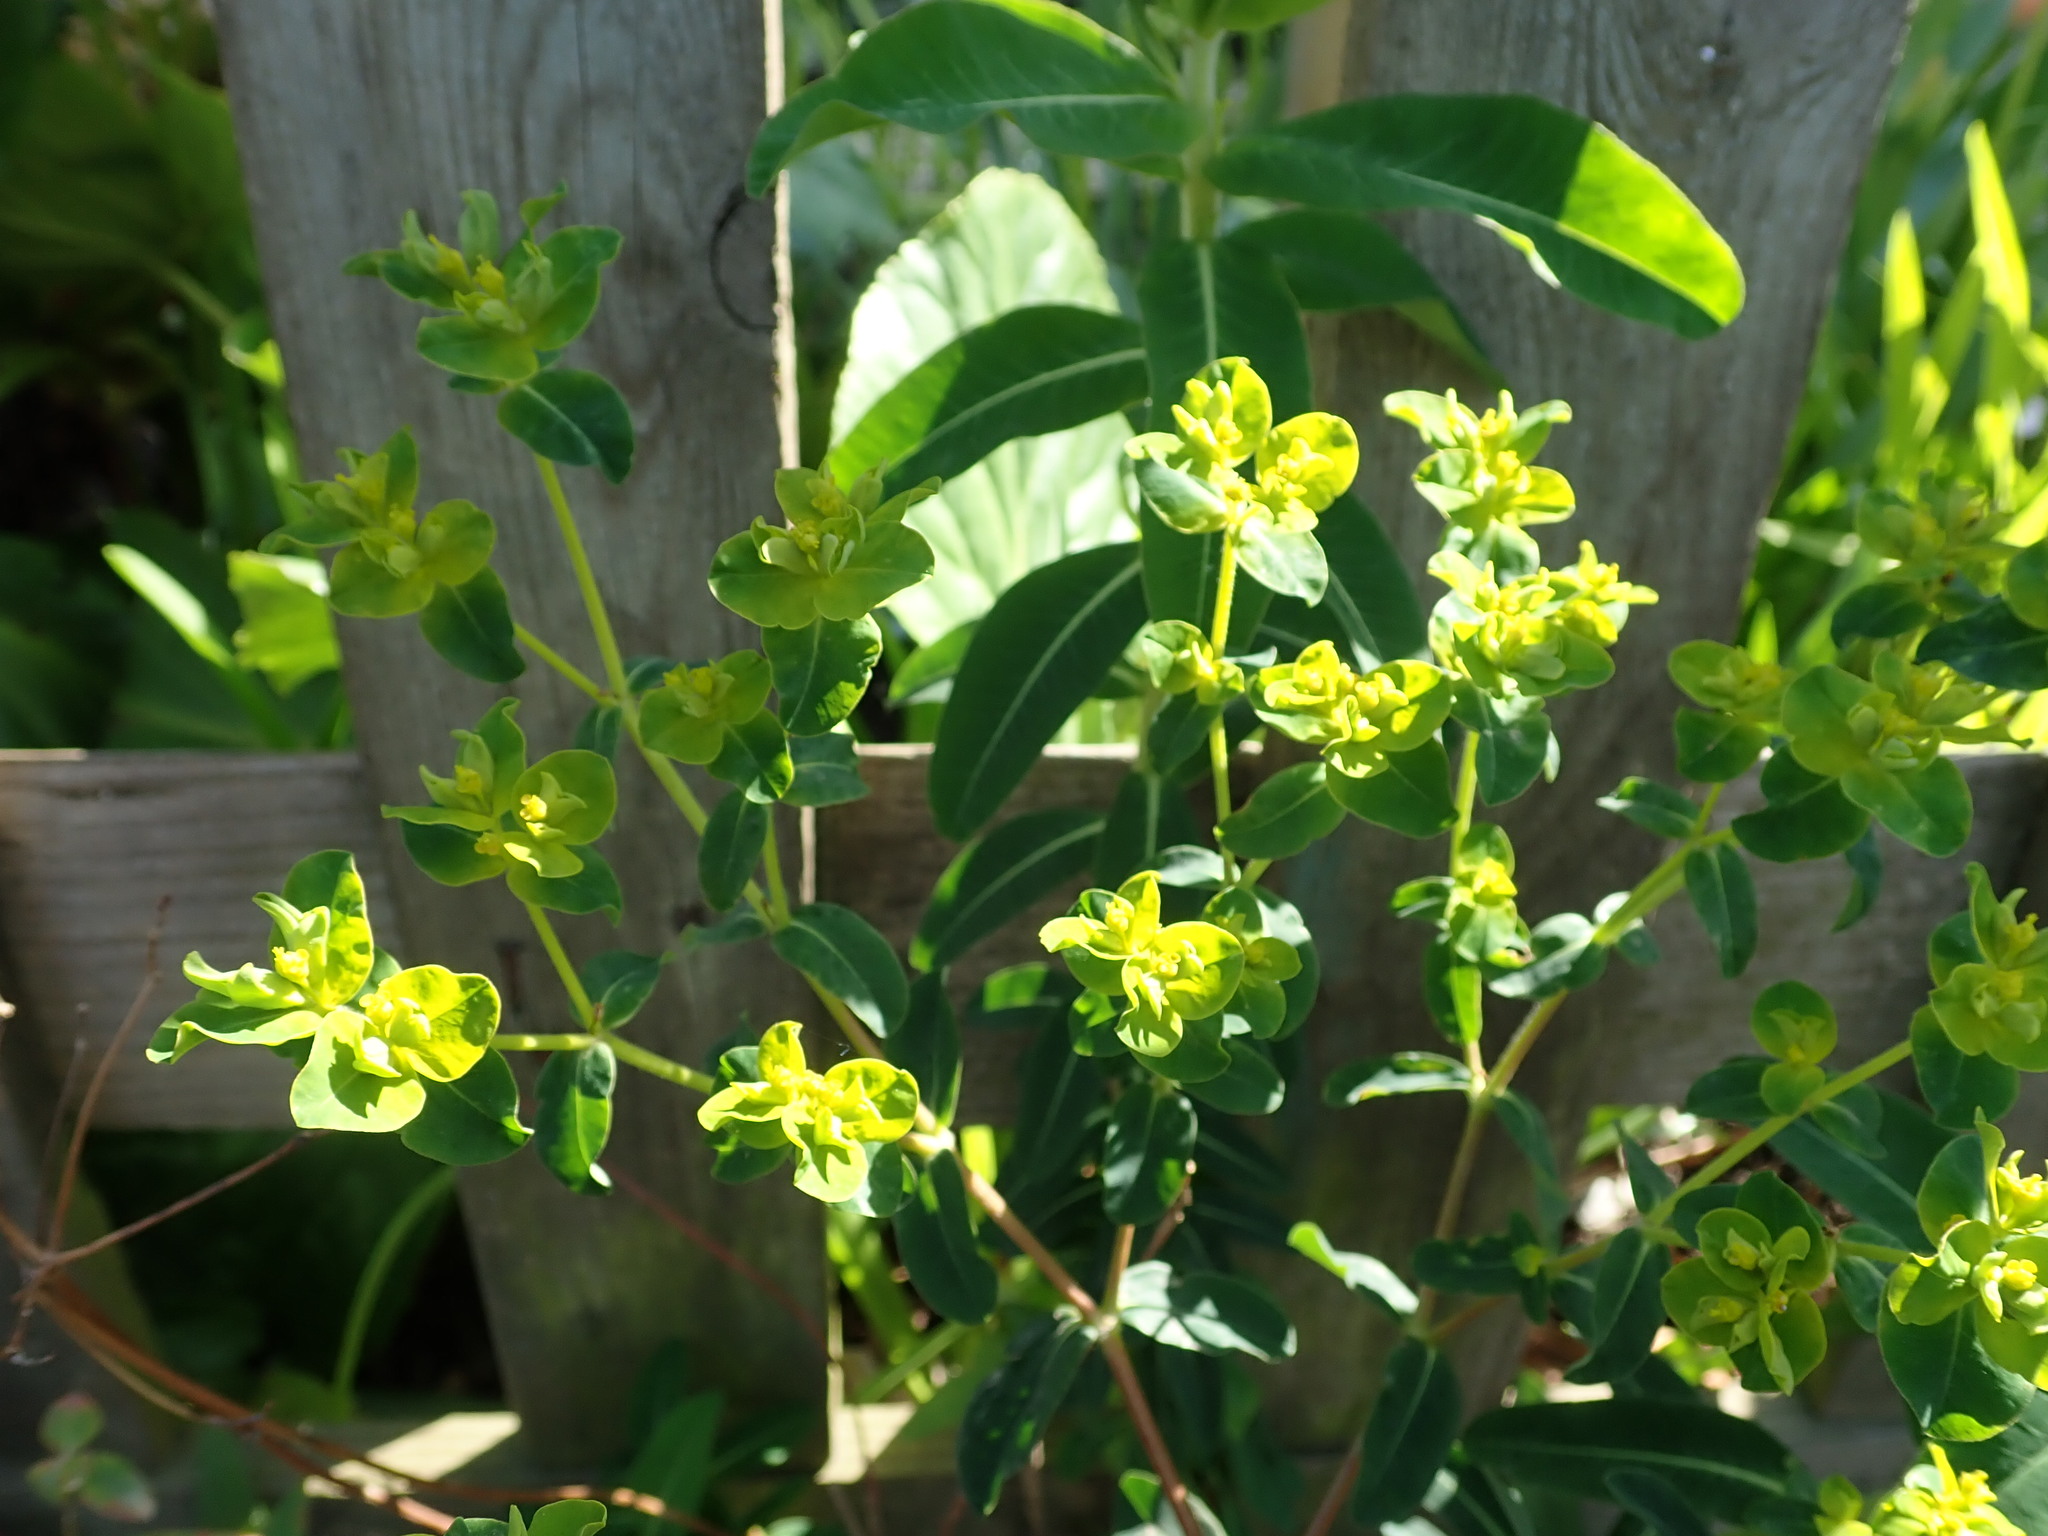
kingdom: Plantae
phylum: Tracheophyta
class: Magnoliopsida
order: Malpighiales
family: Euphorbiaceae
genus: Euphorbia
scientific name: Euphorbia oblongata
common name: Balkan spurge
